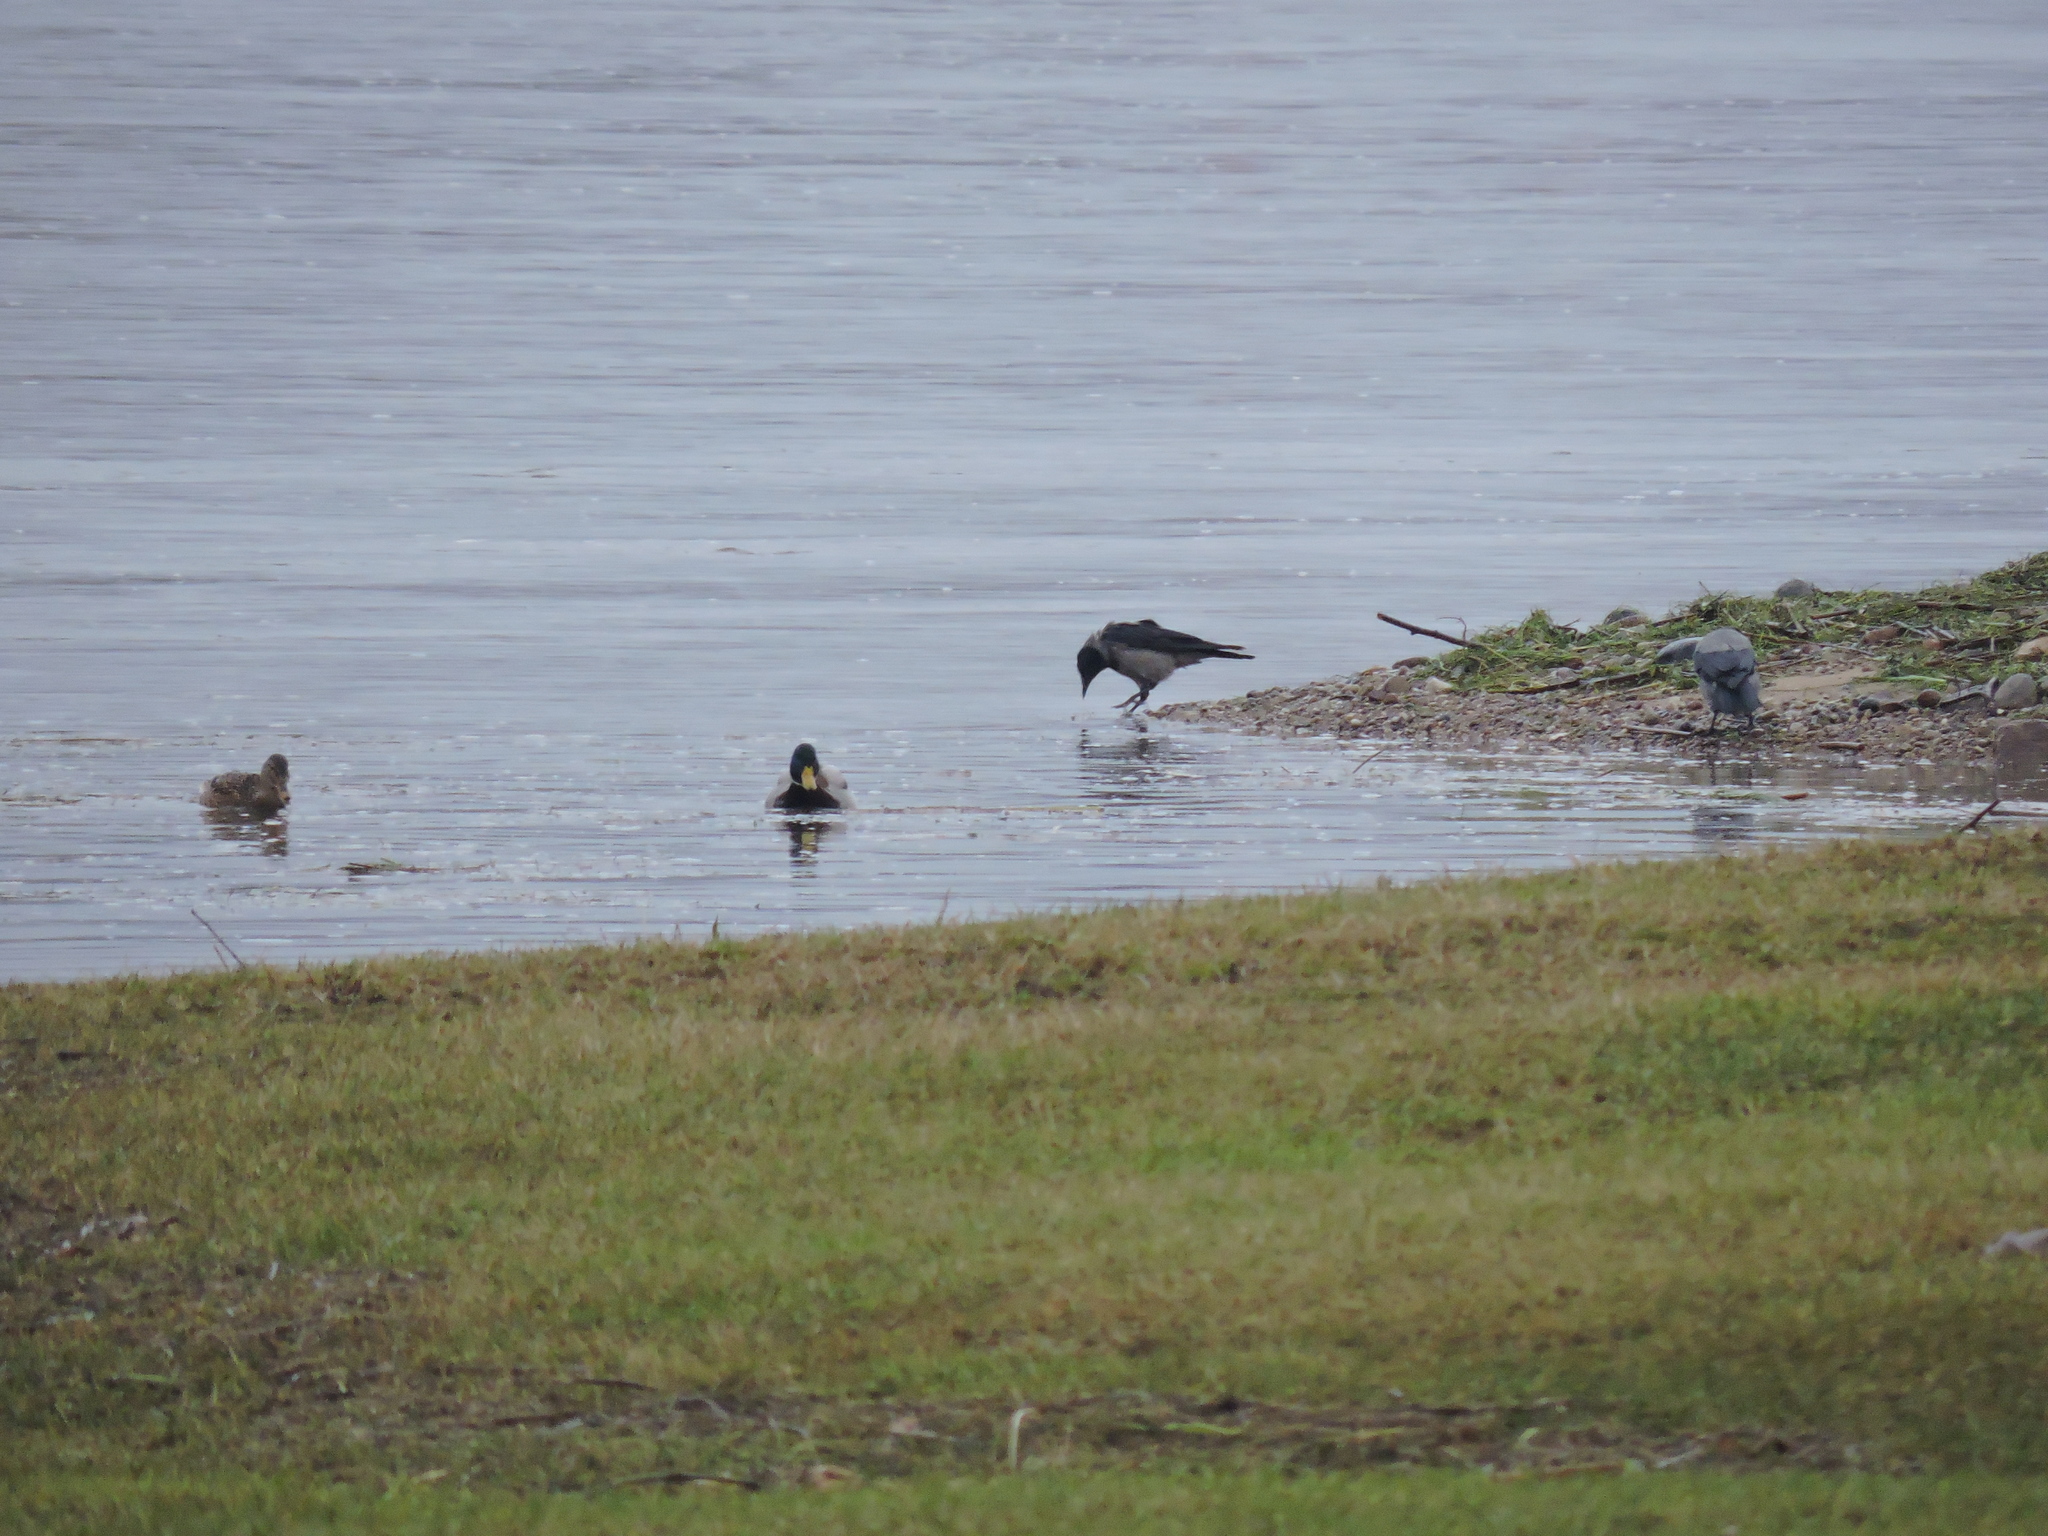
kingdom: Animalia
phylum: Chordata
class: Aves
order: Passeriformes
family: Corvidae
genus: Corvus
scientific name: Corvus cornix
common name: Hooded crow
